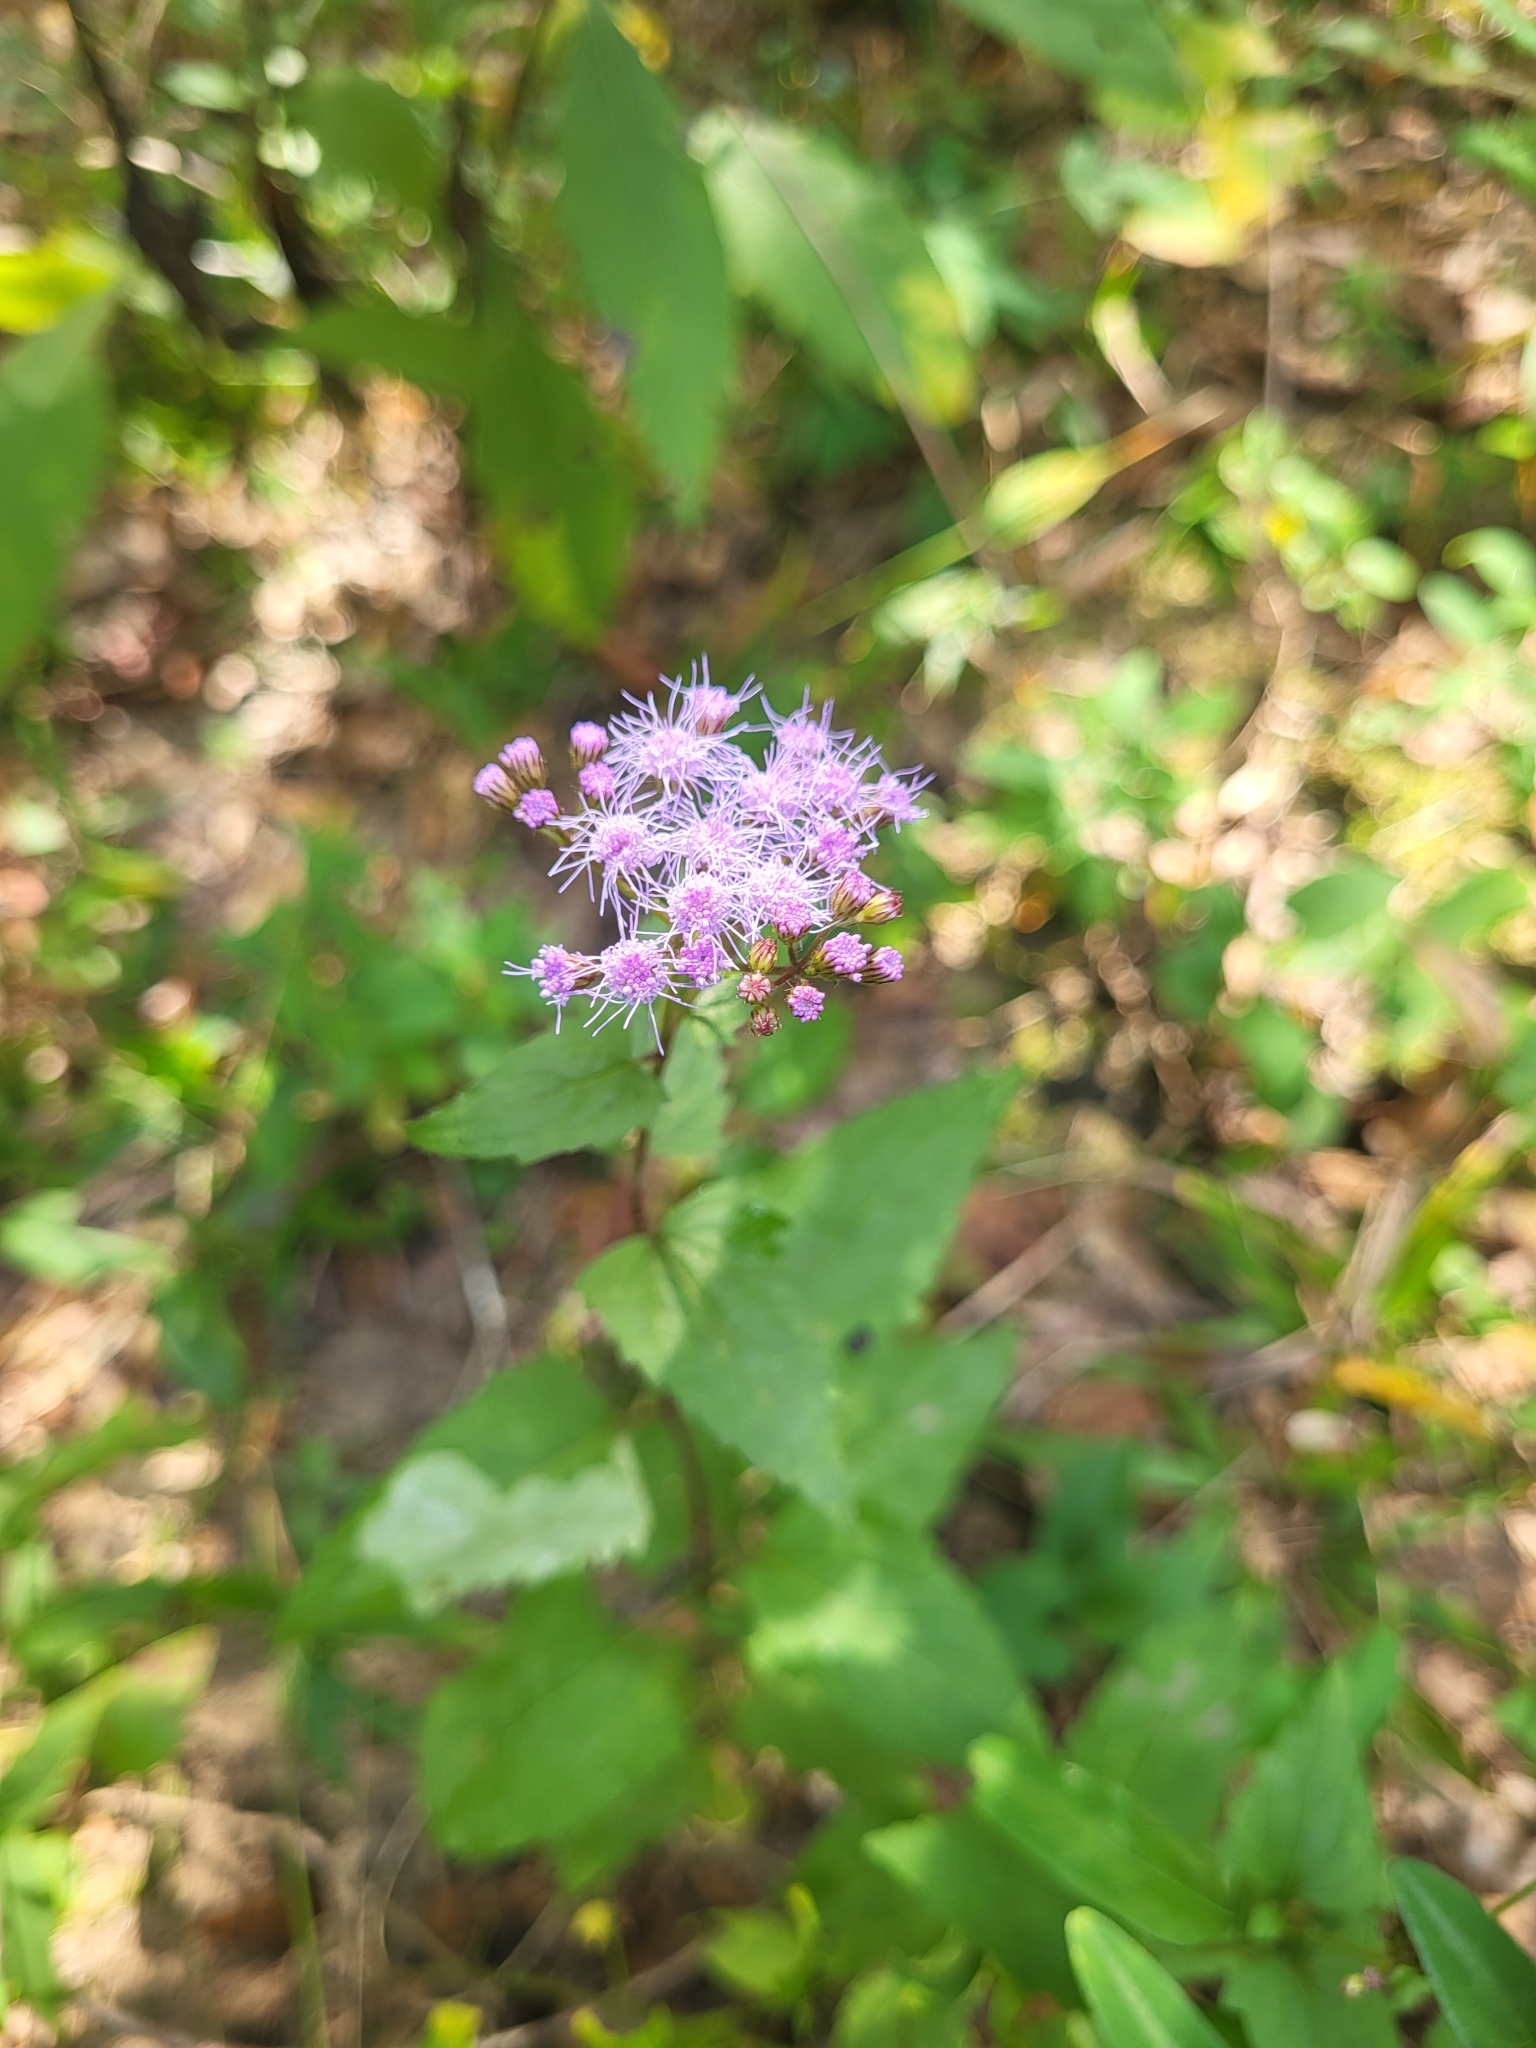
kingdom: Plantae
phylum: Tracheophyta
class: Magnoliopsida
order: Asterales
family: Asteraceae
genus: Conoclinium
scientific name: Conoclinium coelestinum
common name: Blue mistflower
